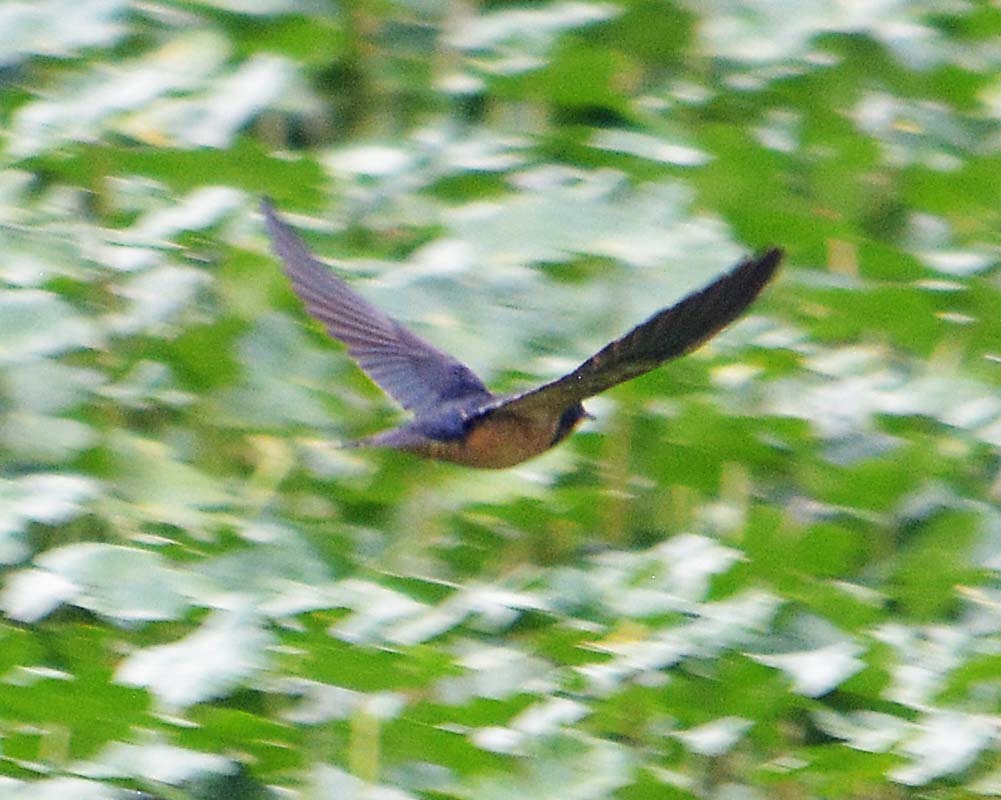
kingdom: Animalia
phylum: Chordata
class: Aves
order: Passeriformes
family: Hirundinidae
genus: Hirundo
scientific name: Hirundo rustica
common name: Barn swallow
